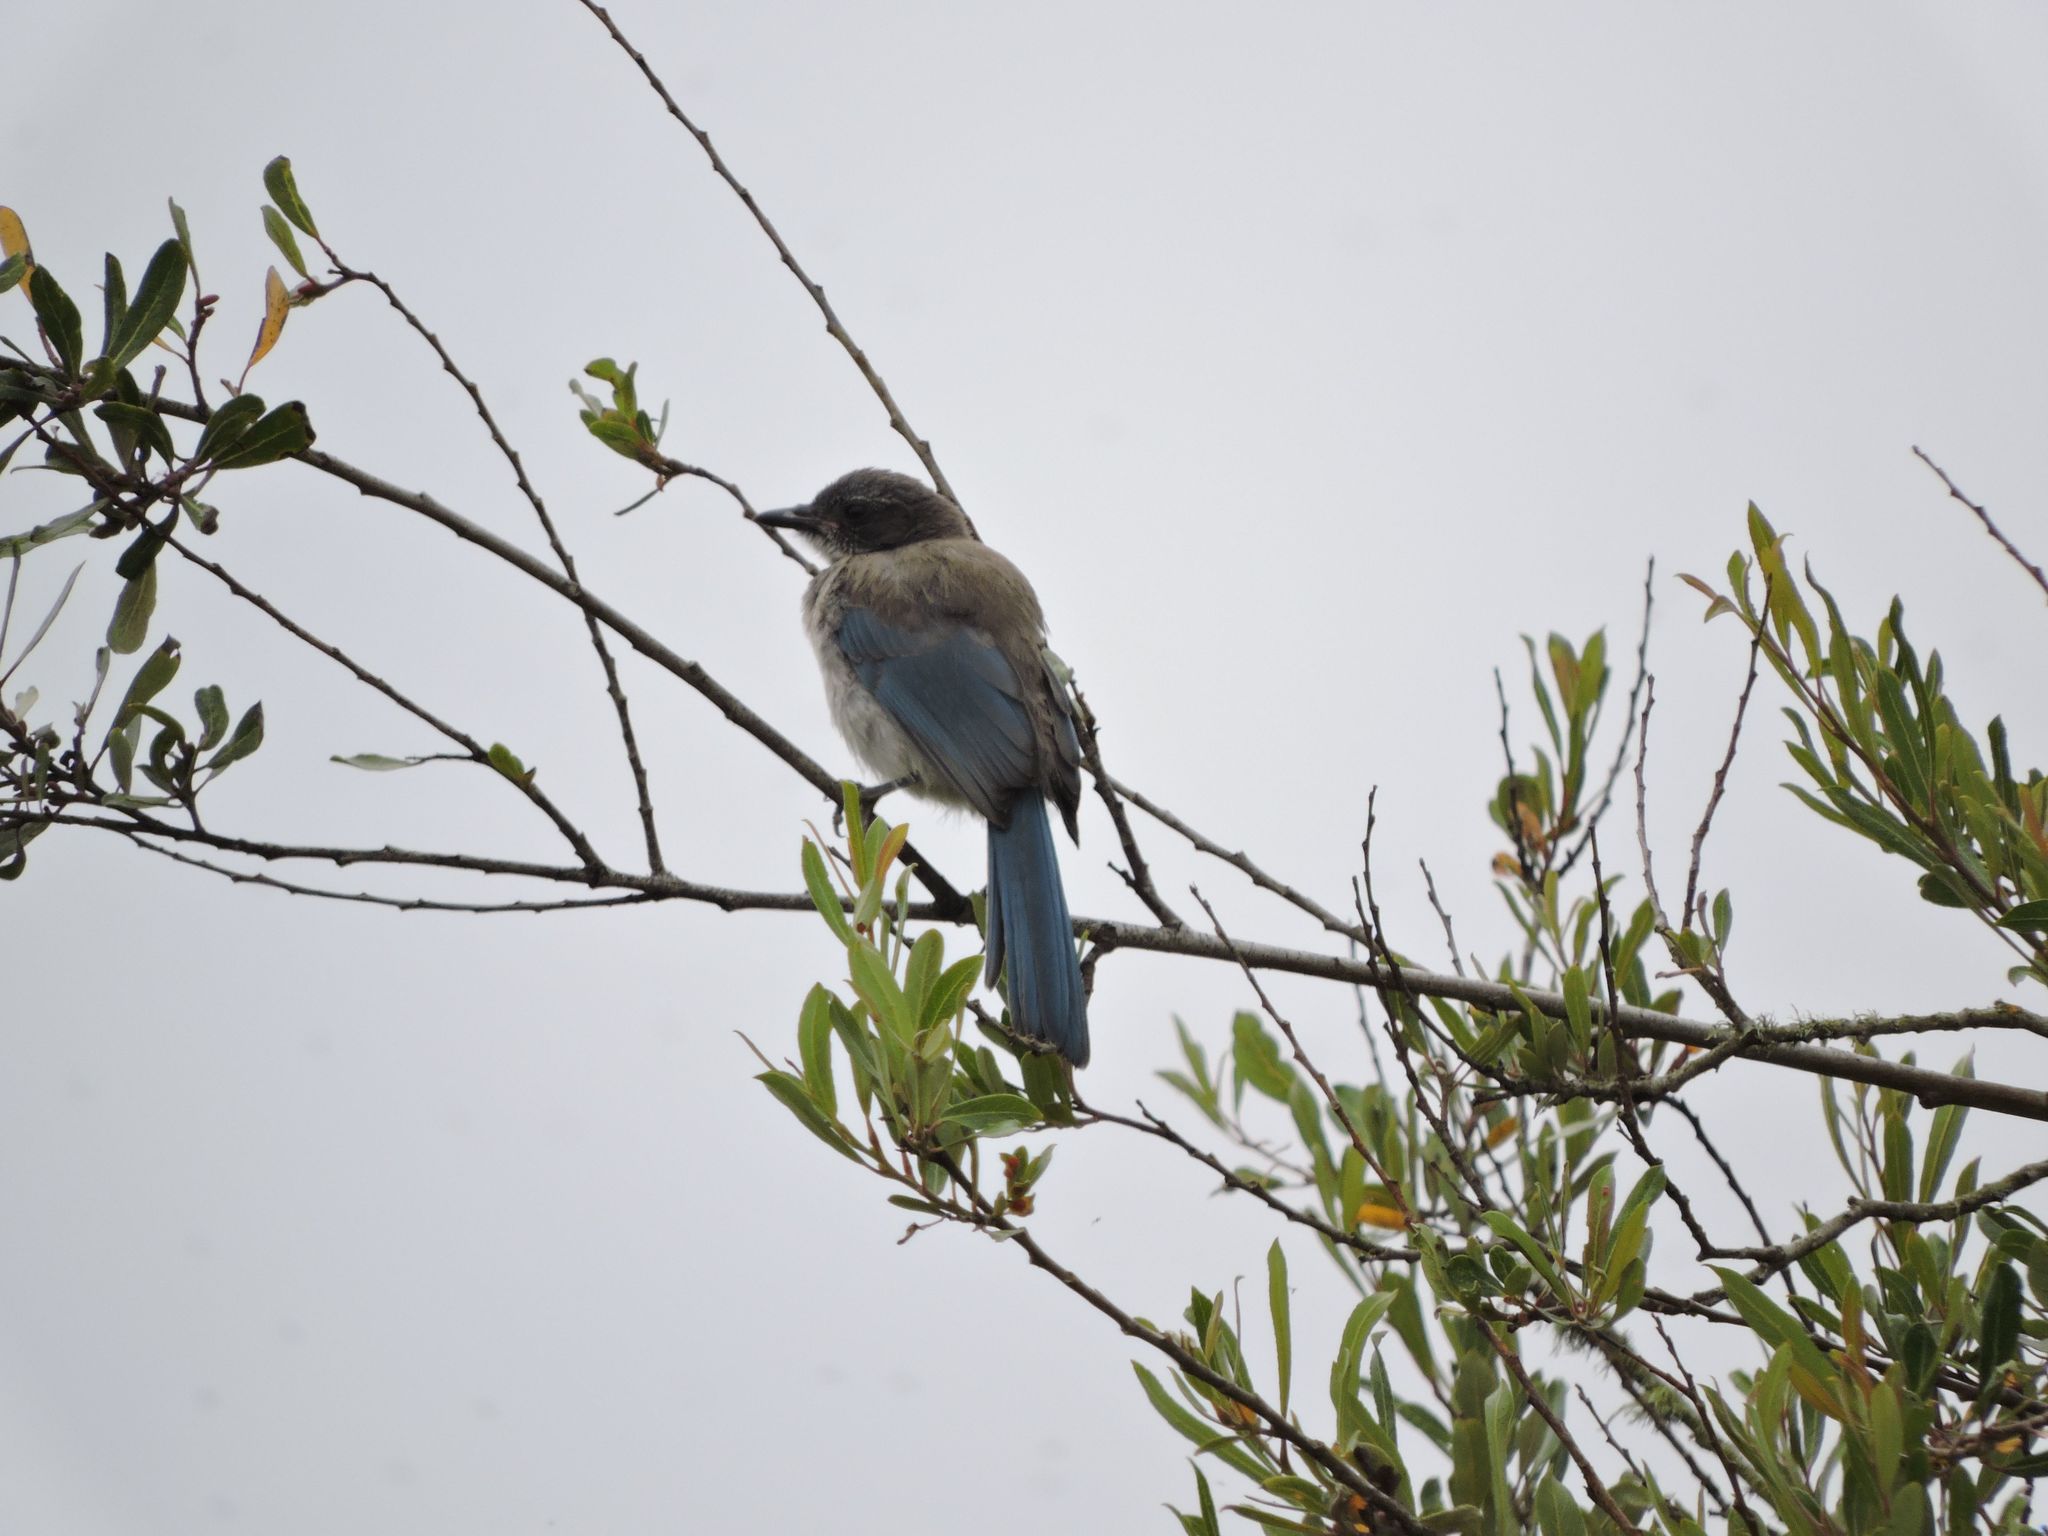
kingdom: Animalia
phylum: Chordata
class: Aves
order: Passeriformes
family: Corvidae
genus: Aphelocoma
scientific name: Aphelocoma californica
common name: California scrub-jay
